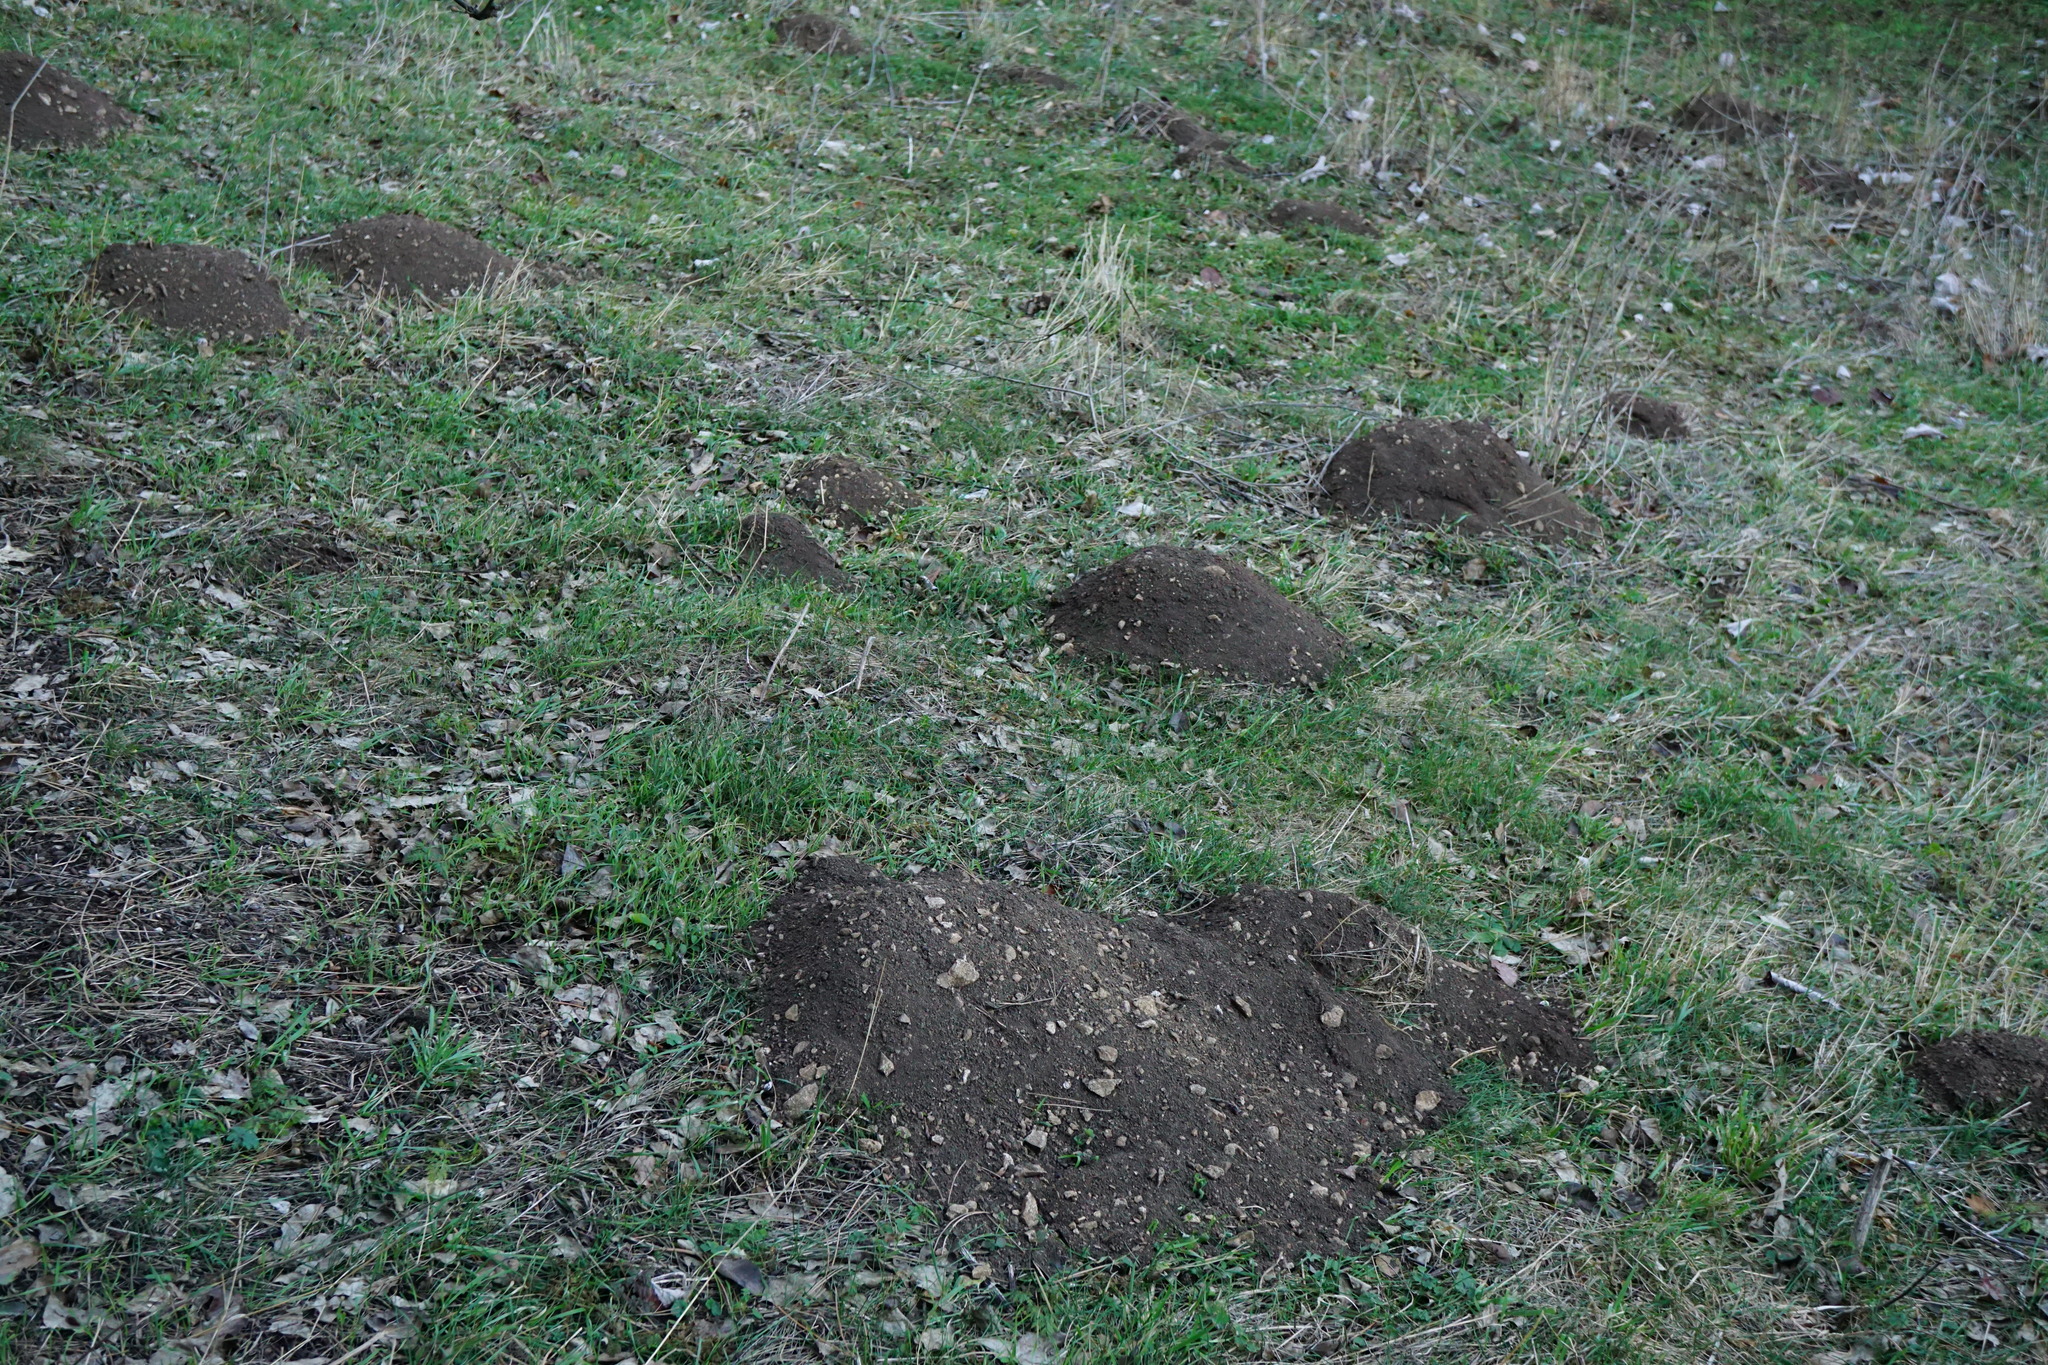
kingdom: Animalia
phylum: Chordata
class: Mammalia
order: Soricomorpha
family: Talpidae
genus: Talpa
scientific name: Talpa europaea
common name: European mole
